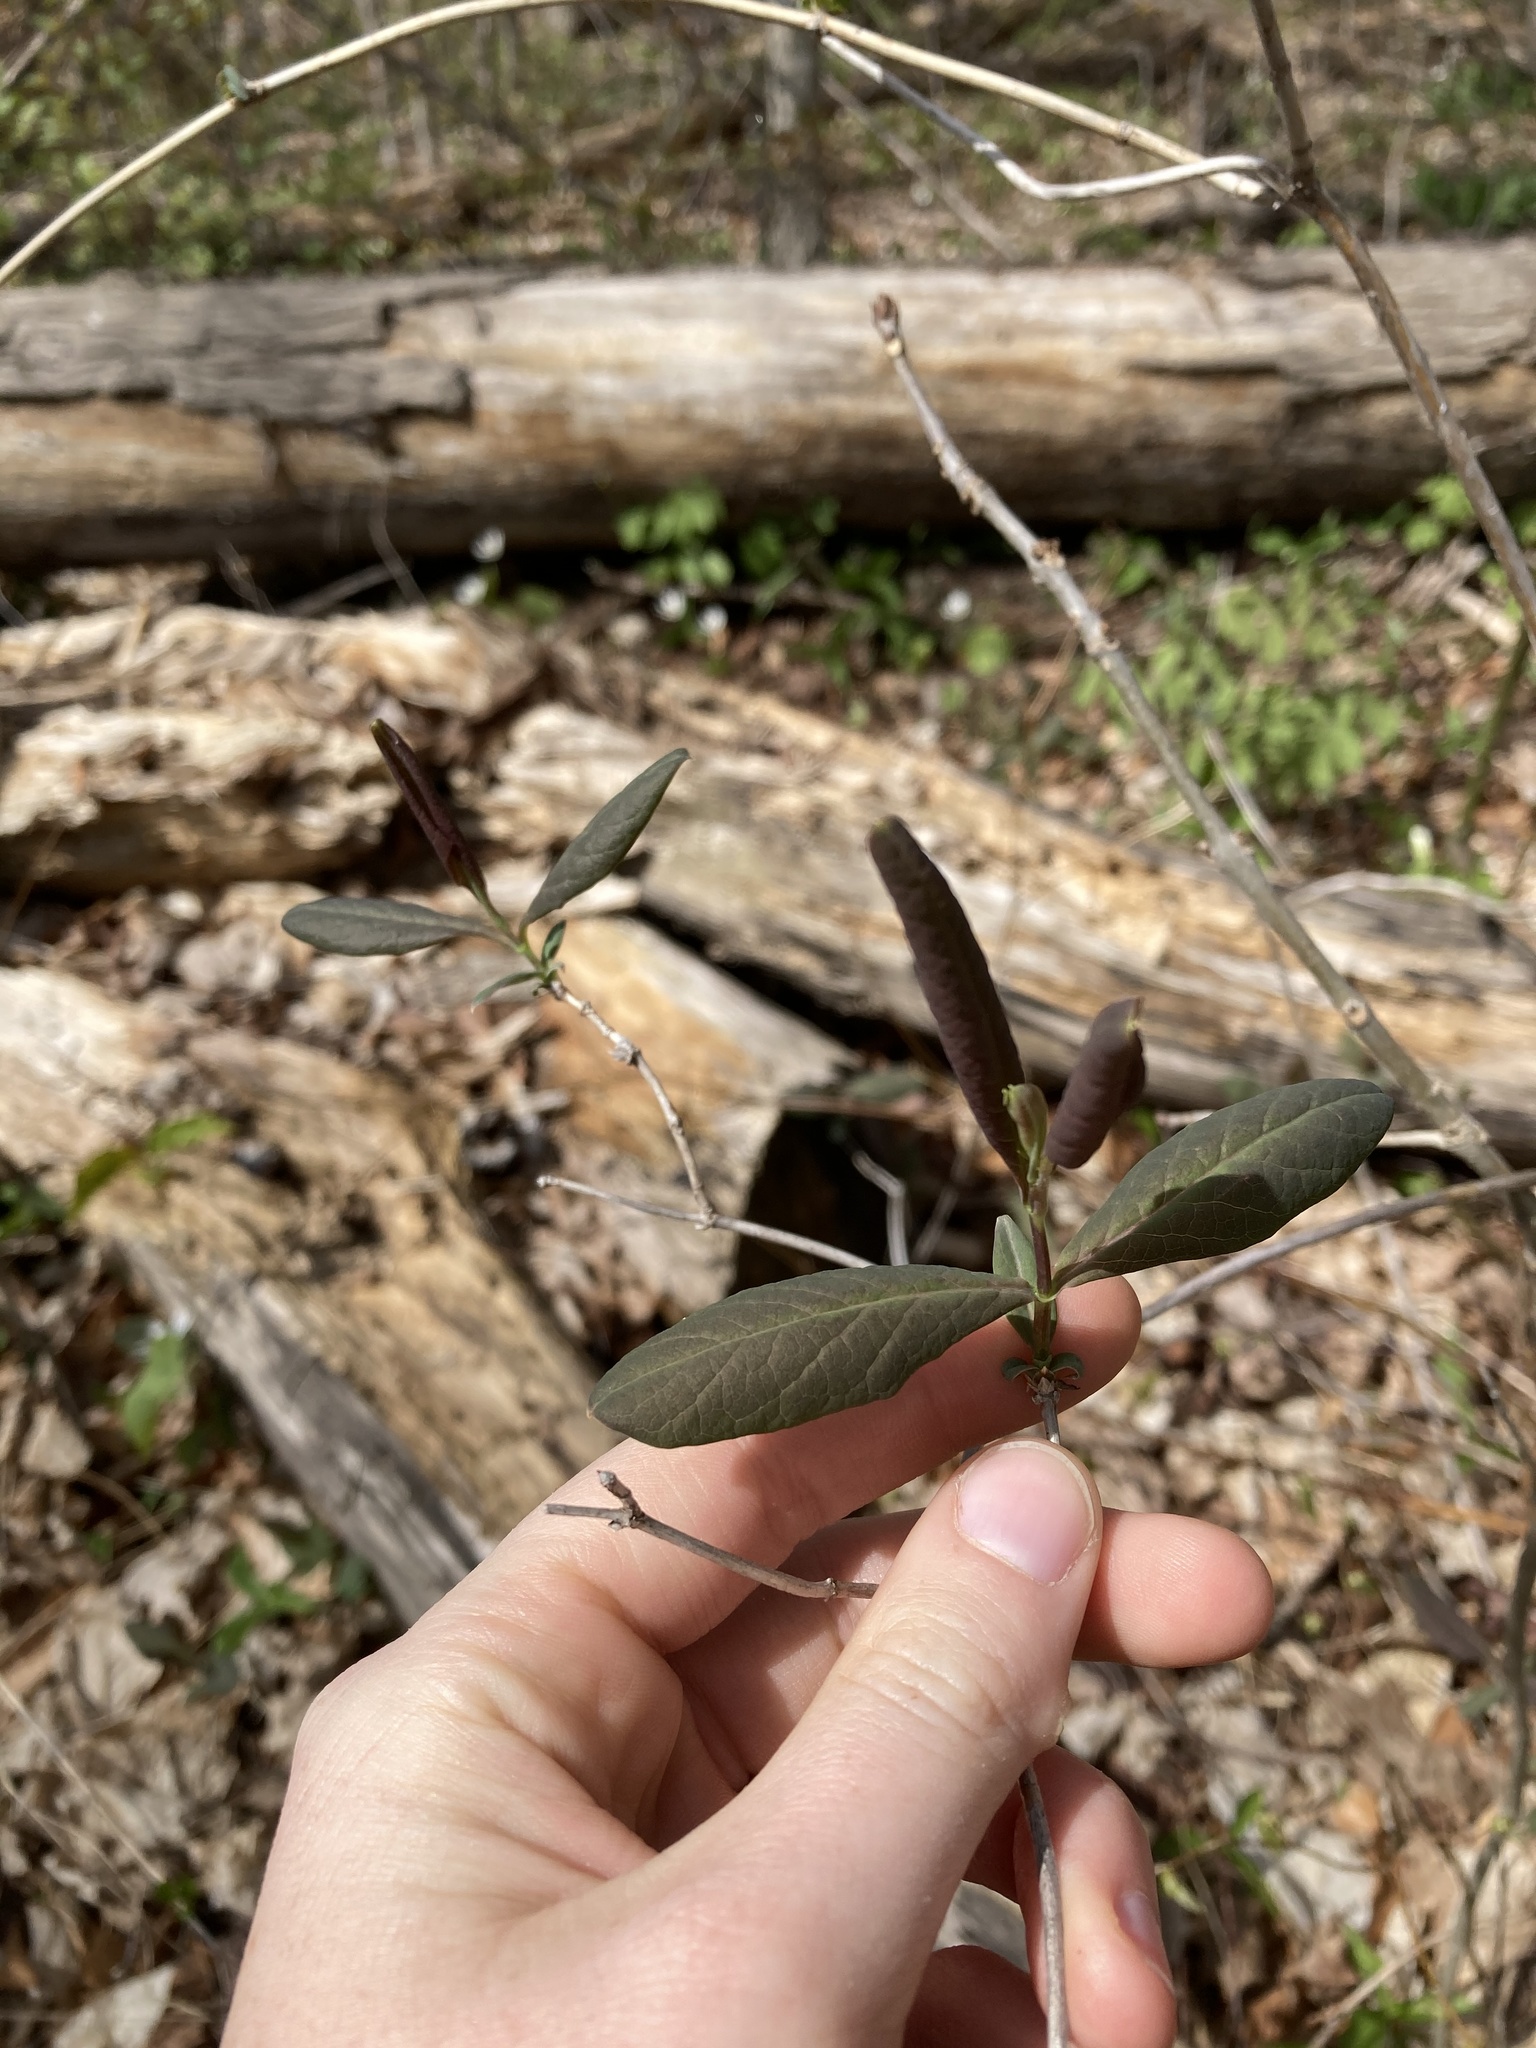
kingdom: Plantae
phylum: Tracheophyta
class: Magnoliopsida
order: Dipsacales
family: Caprifoliaceae
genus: Lonicera
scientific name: Lonicera dioica
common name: Limber honeysuckle
